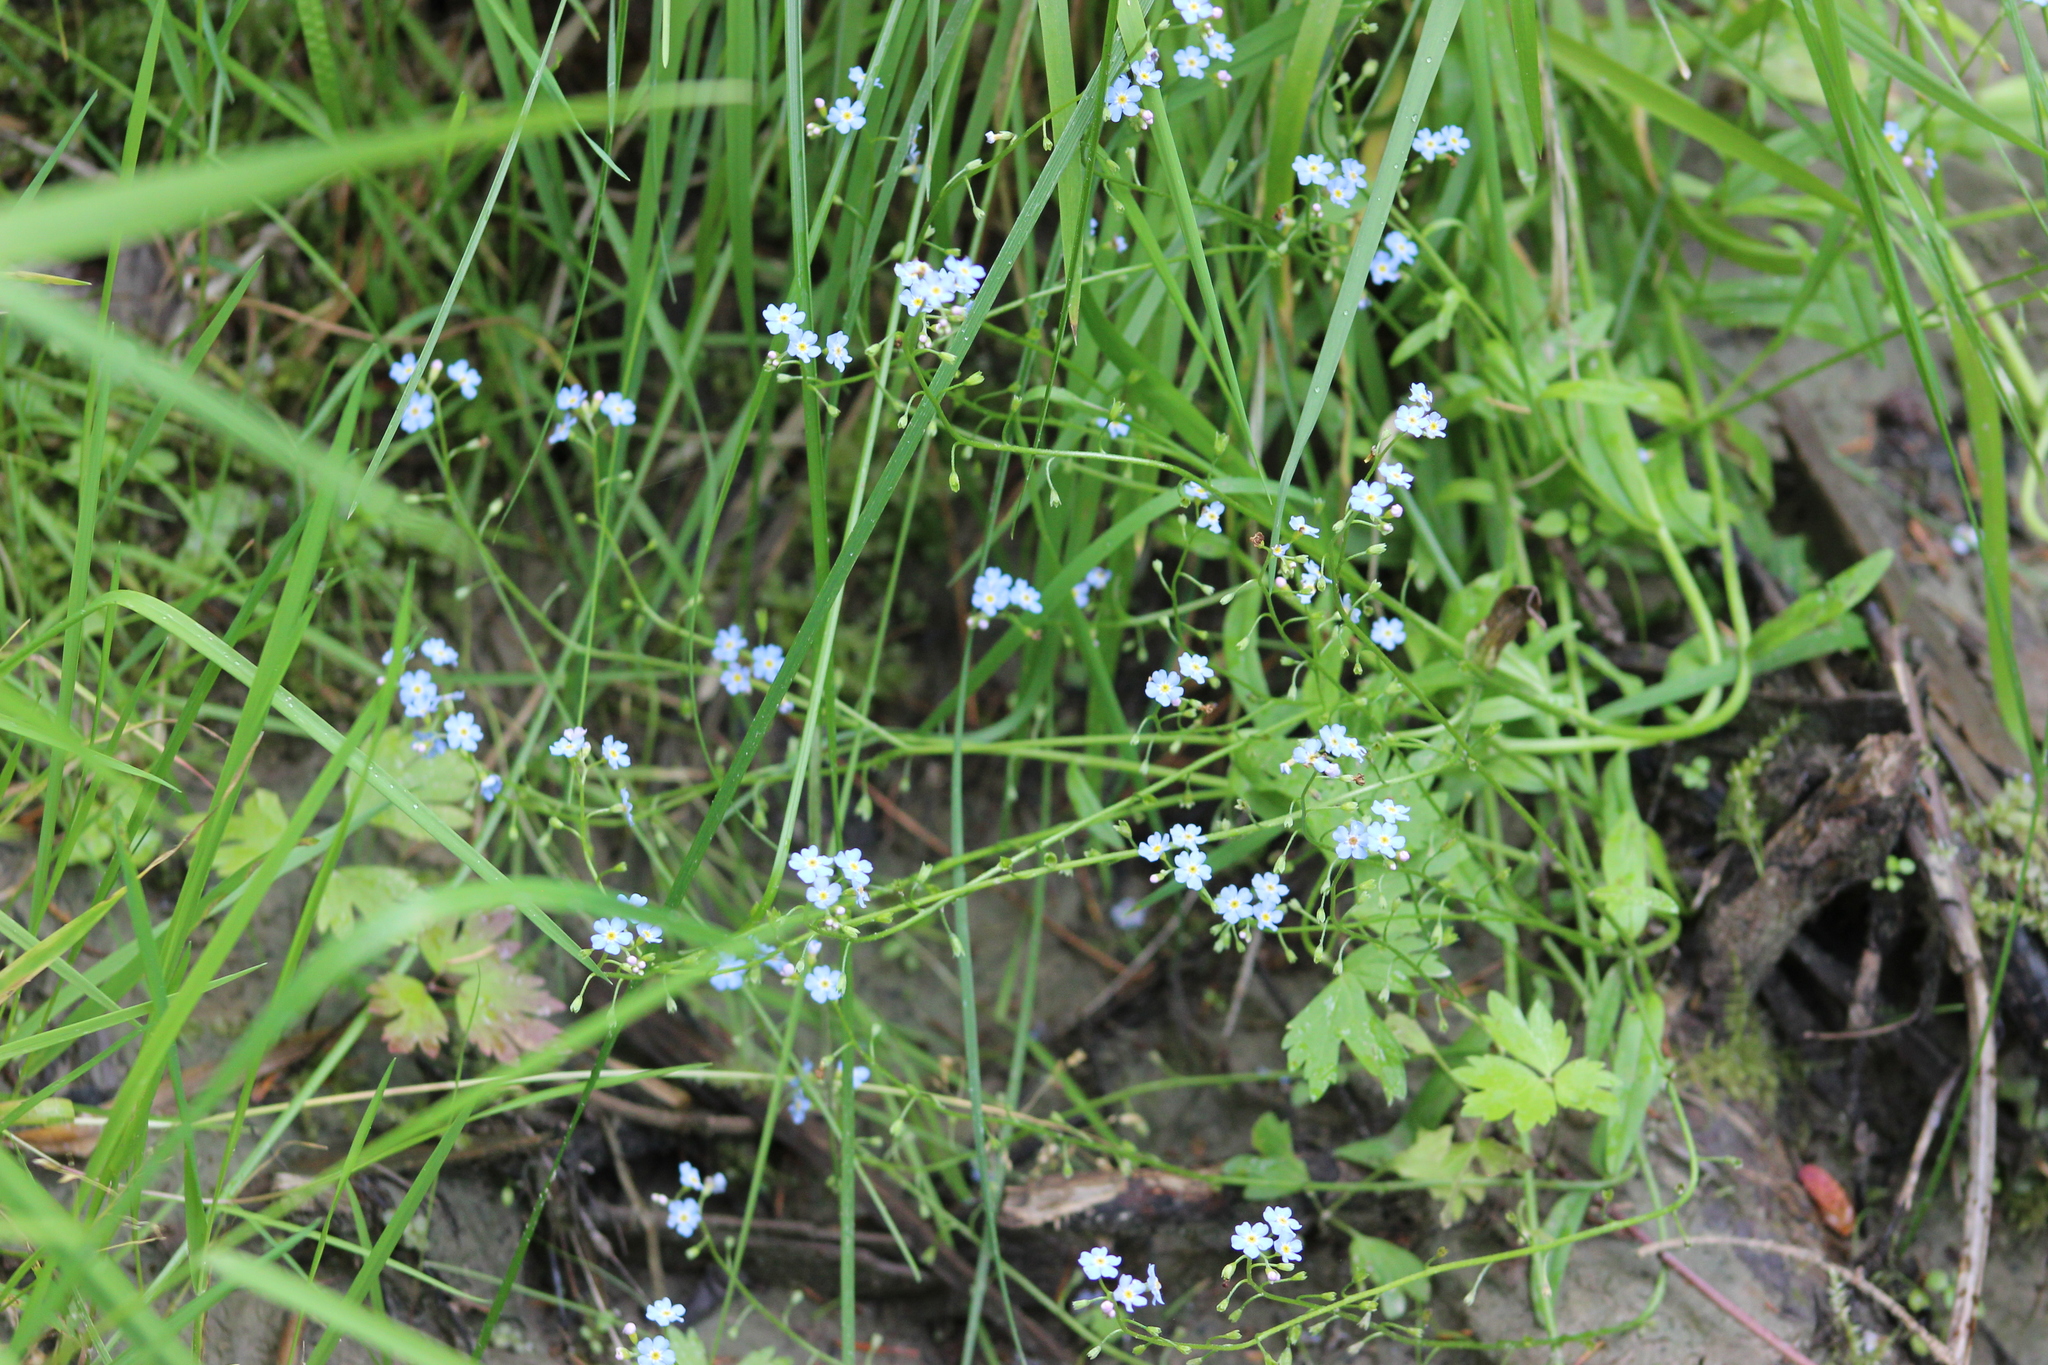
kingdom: Plantae
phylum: Tracheophyta
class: Magnoliopsida
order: Boraginales
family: Boraginaceae
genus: Myosotis
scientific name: Myosotis scorpioides
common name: Water forget-me-not
